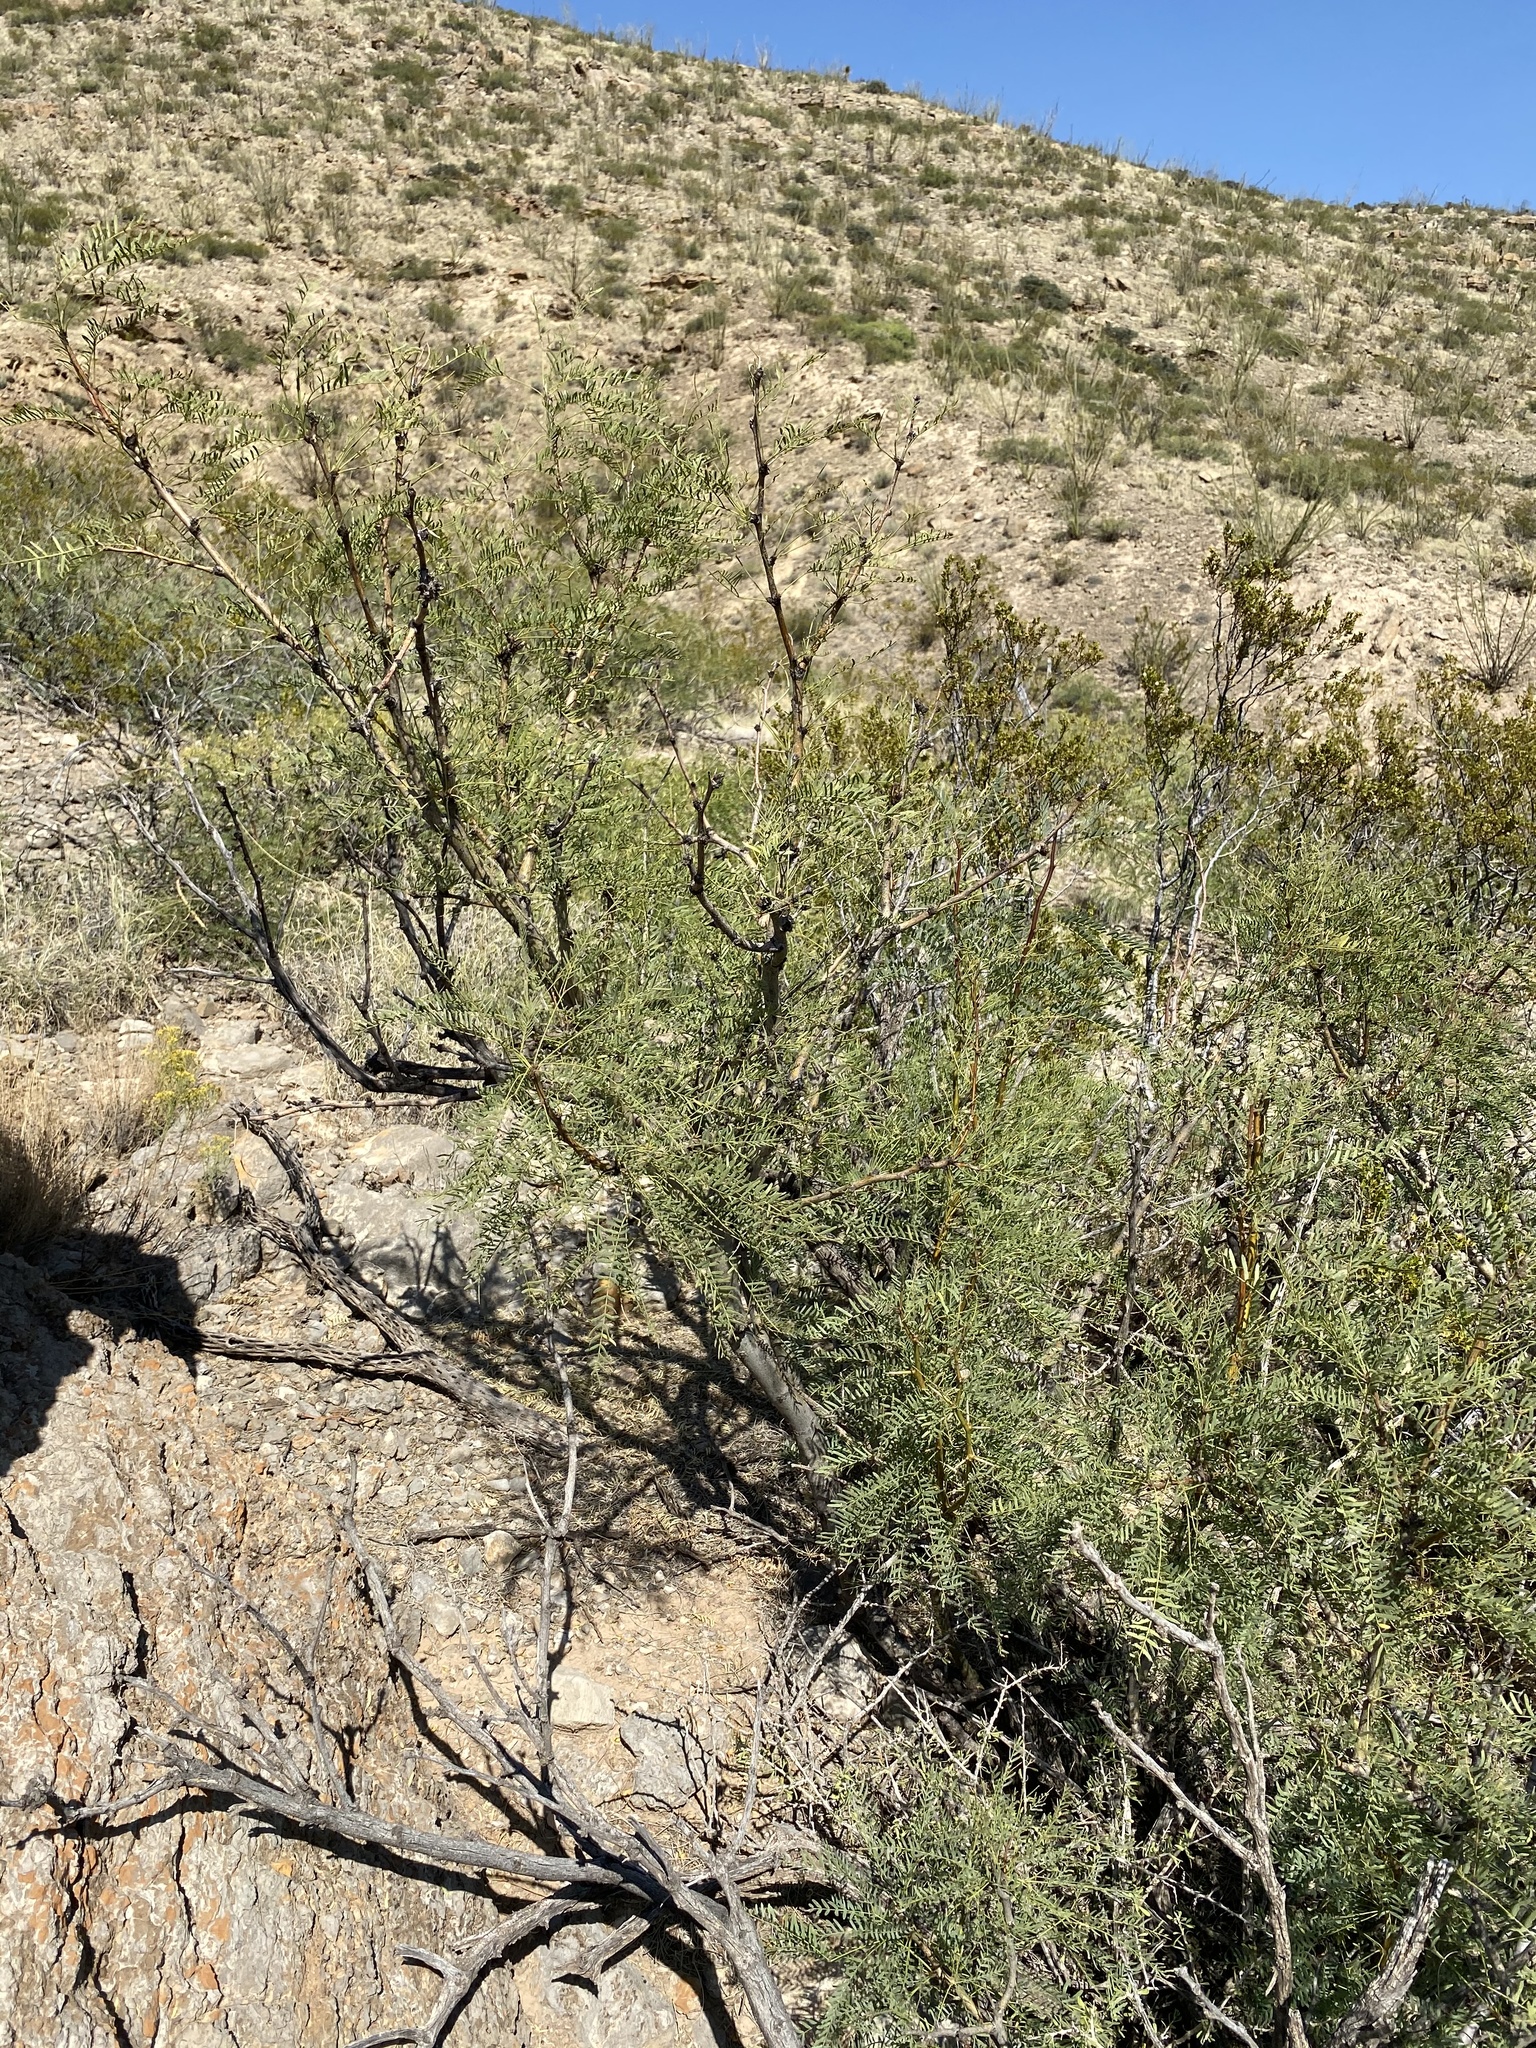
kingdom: Plantae
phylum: Tracheophyta
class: Magnoliopsida
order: Fabales
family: Fabaceae
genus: Prosopis
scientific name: Prosopis glandulosa
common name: Honey mesquite
